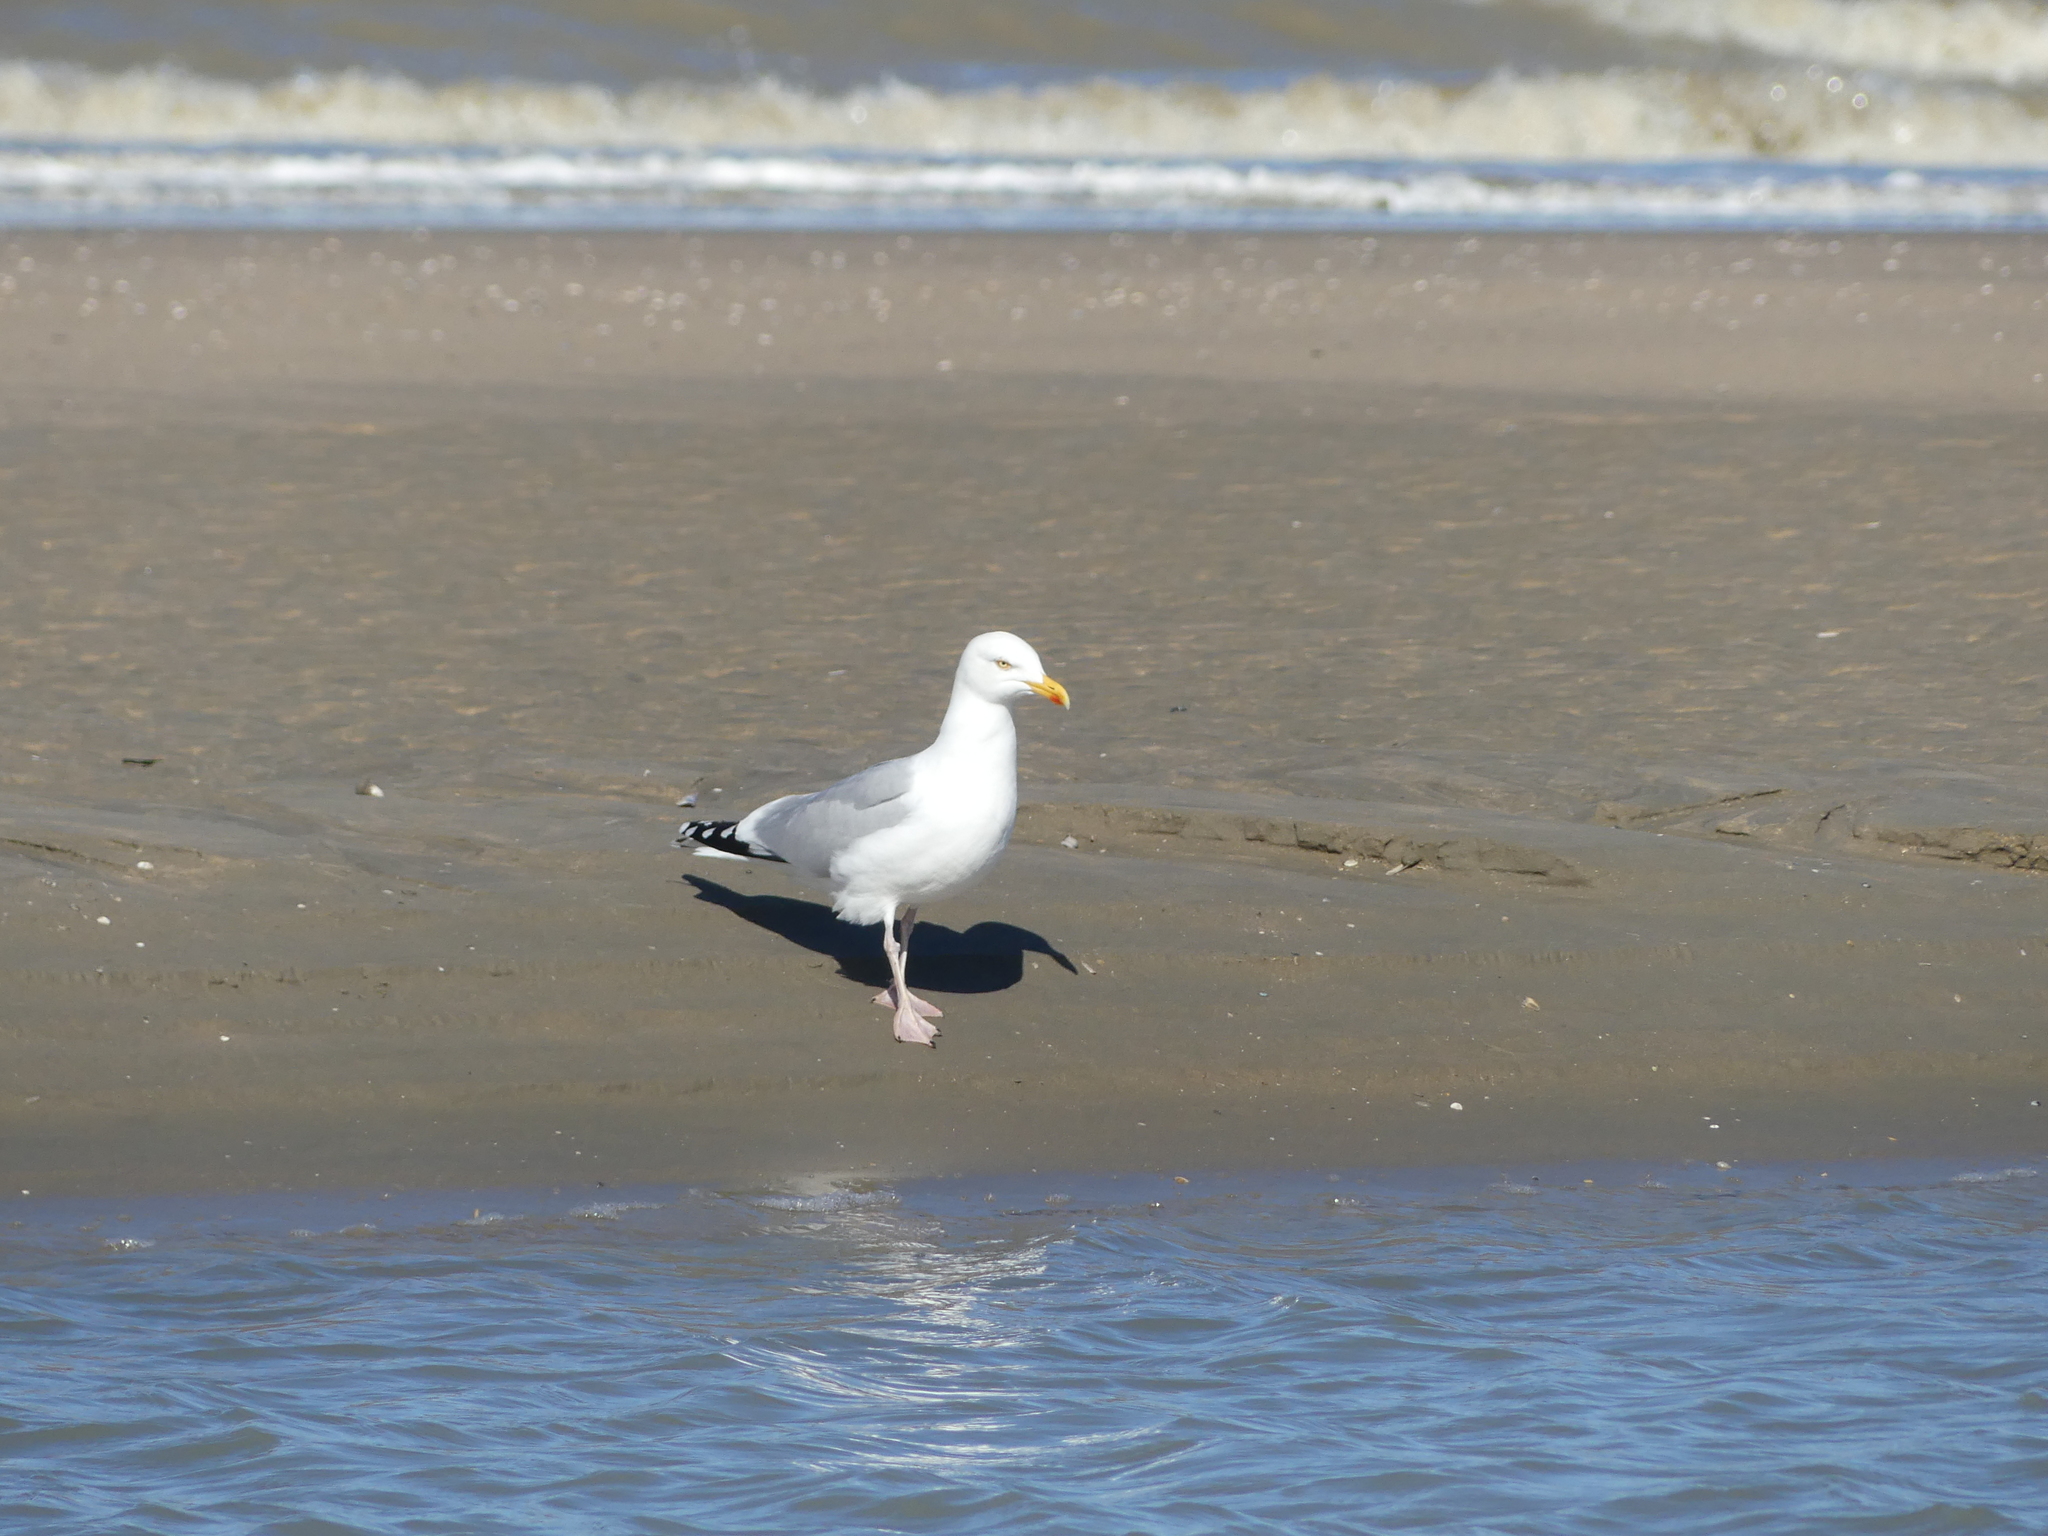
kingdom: Animalia
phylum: Chordata
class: Aves
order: Charadriiformes
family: Laridae
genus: Larus
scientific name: Larus argentatus
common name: Herring gull
